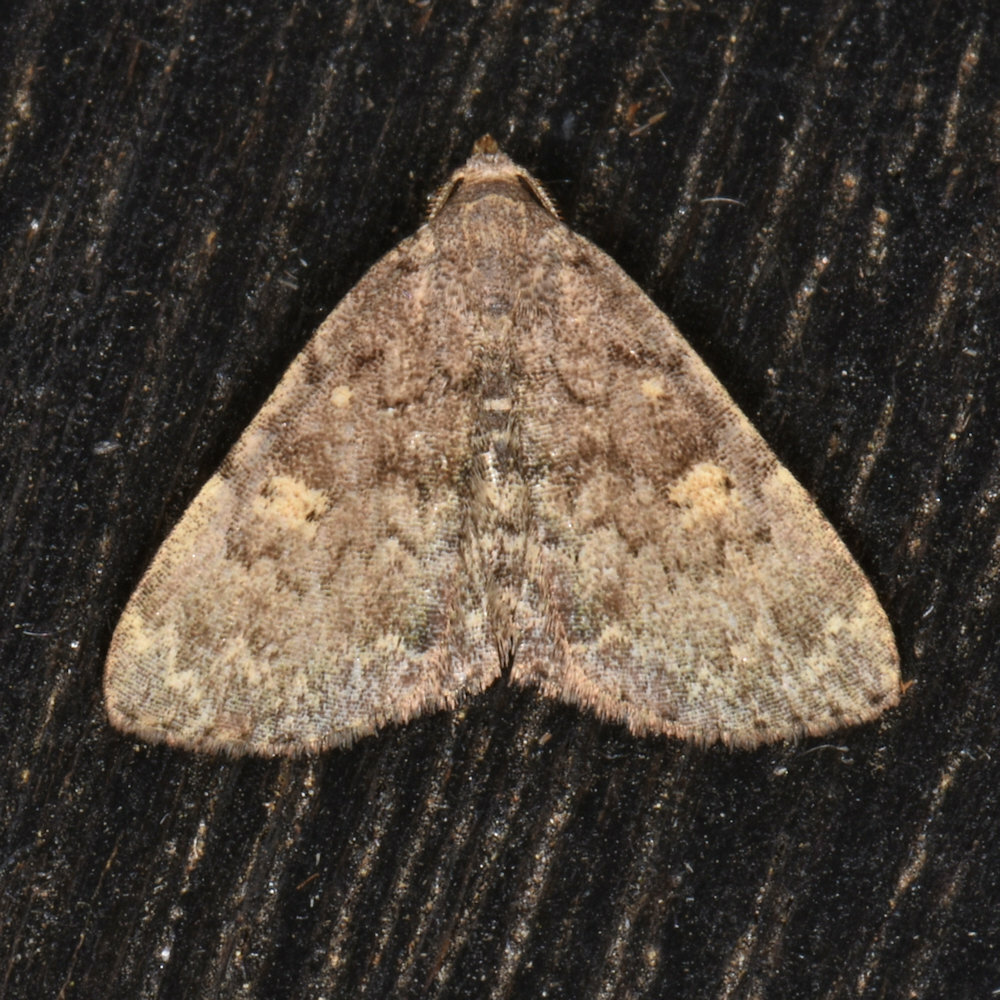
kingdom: Animalia
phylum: Arthropoda
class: Insecta
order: Lepidoptera
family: Erebidae
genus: Idia
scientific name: Idia aemula
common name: Common idia moth
